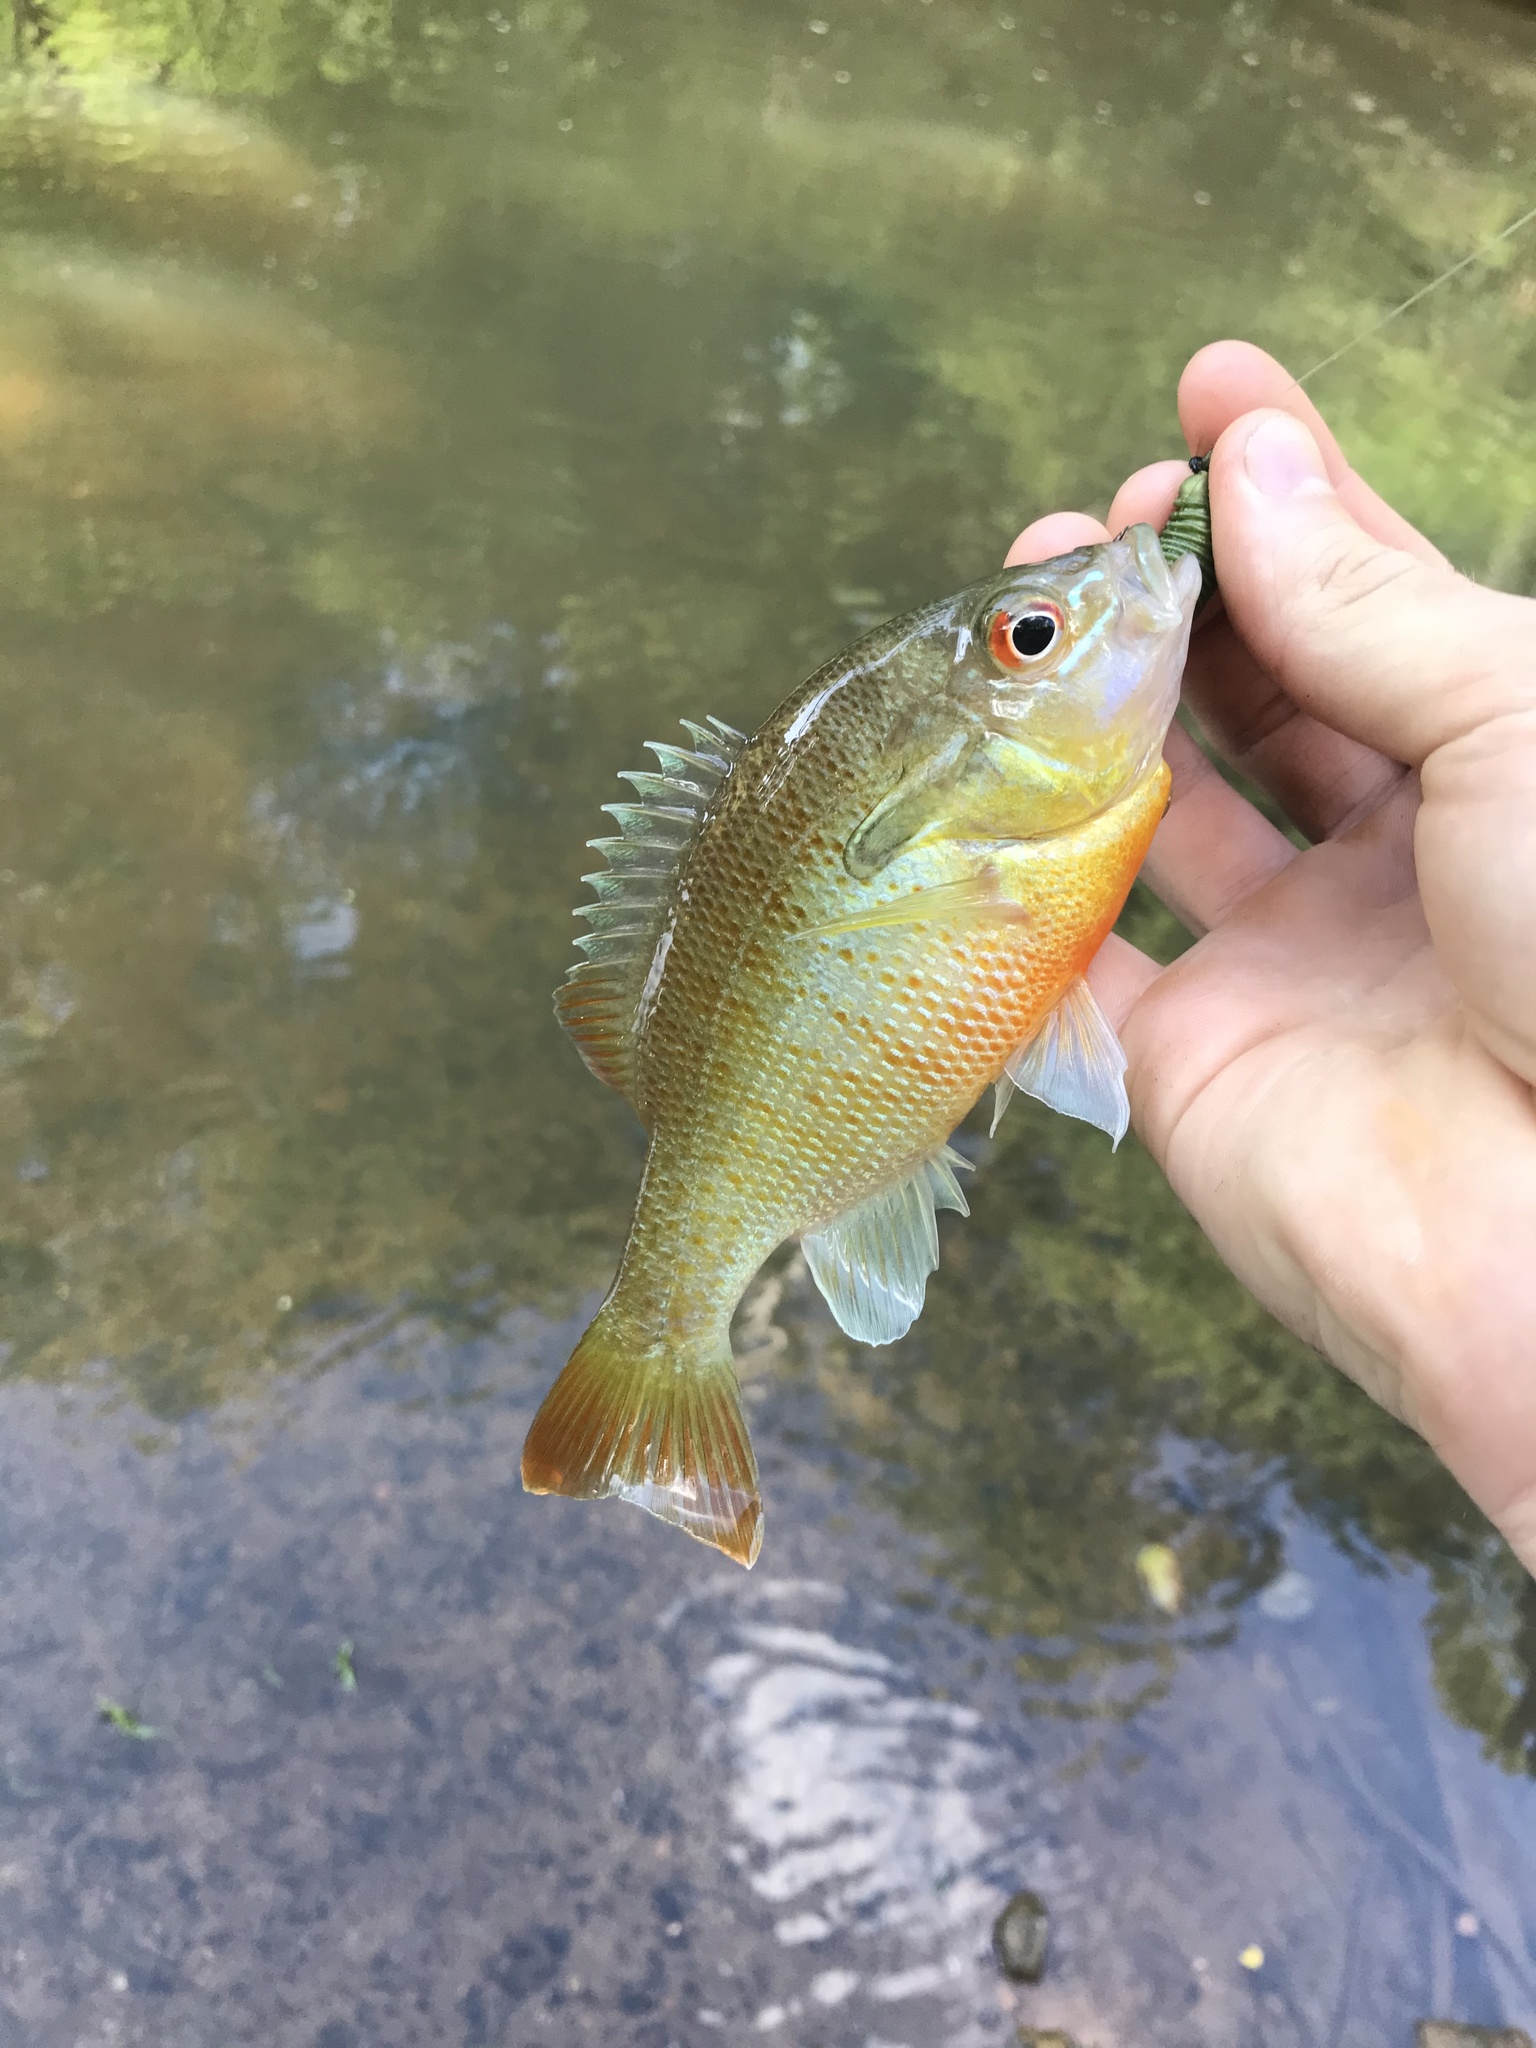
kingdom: Animalia
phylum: Chordata
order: Perciformes
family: Centrarchidae
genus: Lepomis
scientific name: Lepomis auritus
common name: Redbreast sunfish
